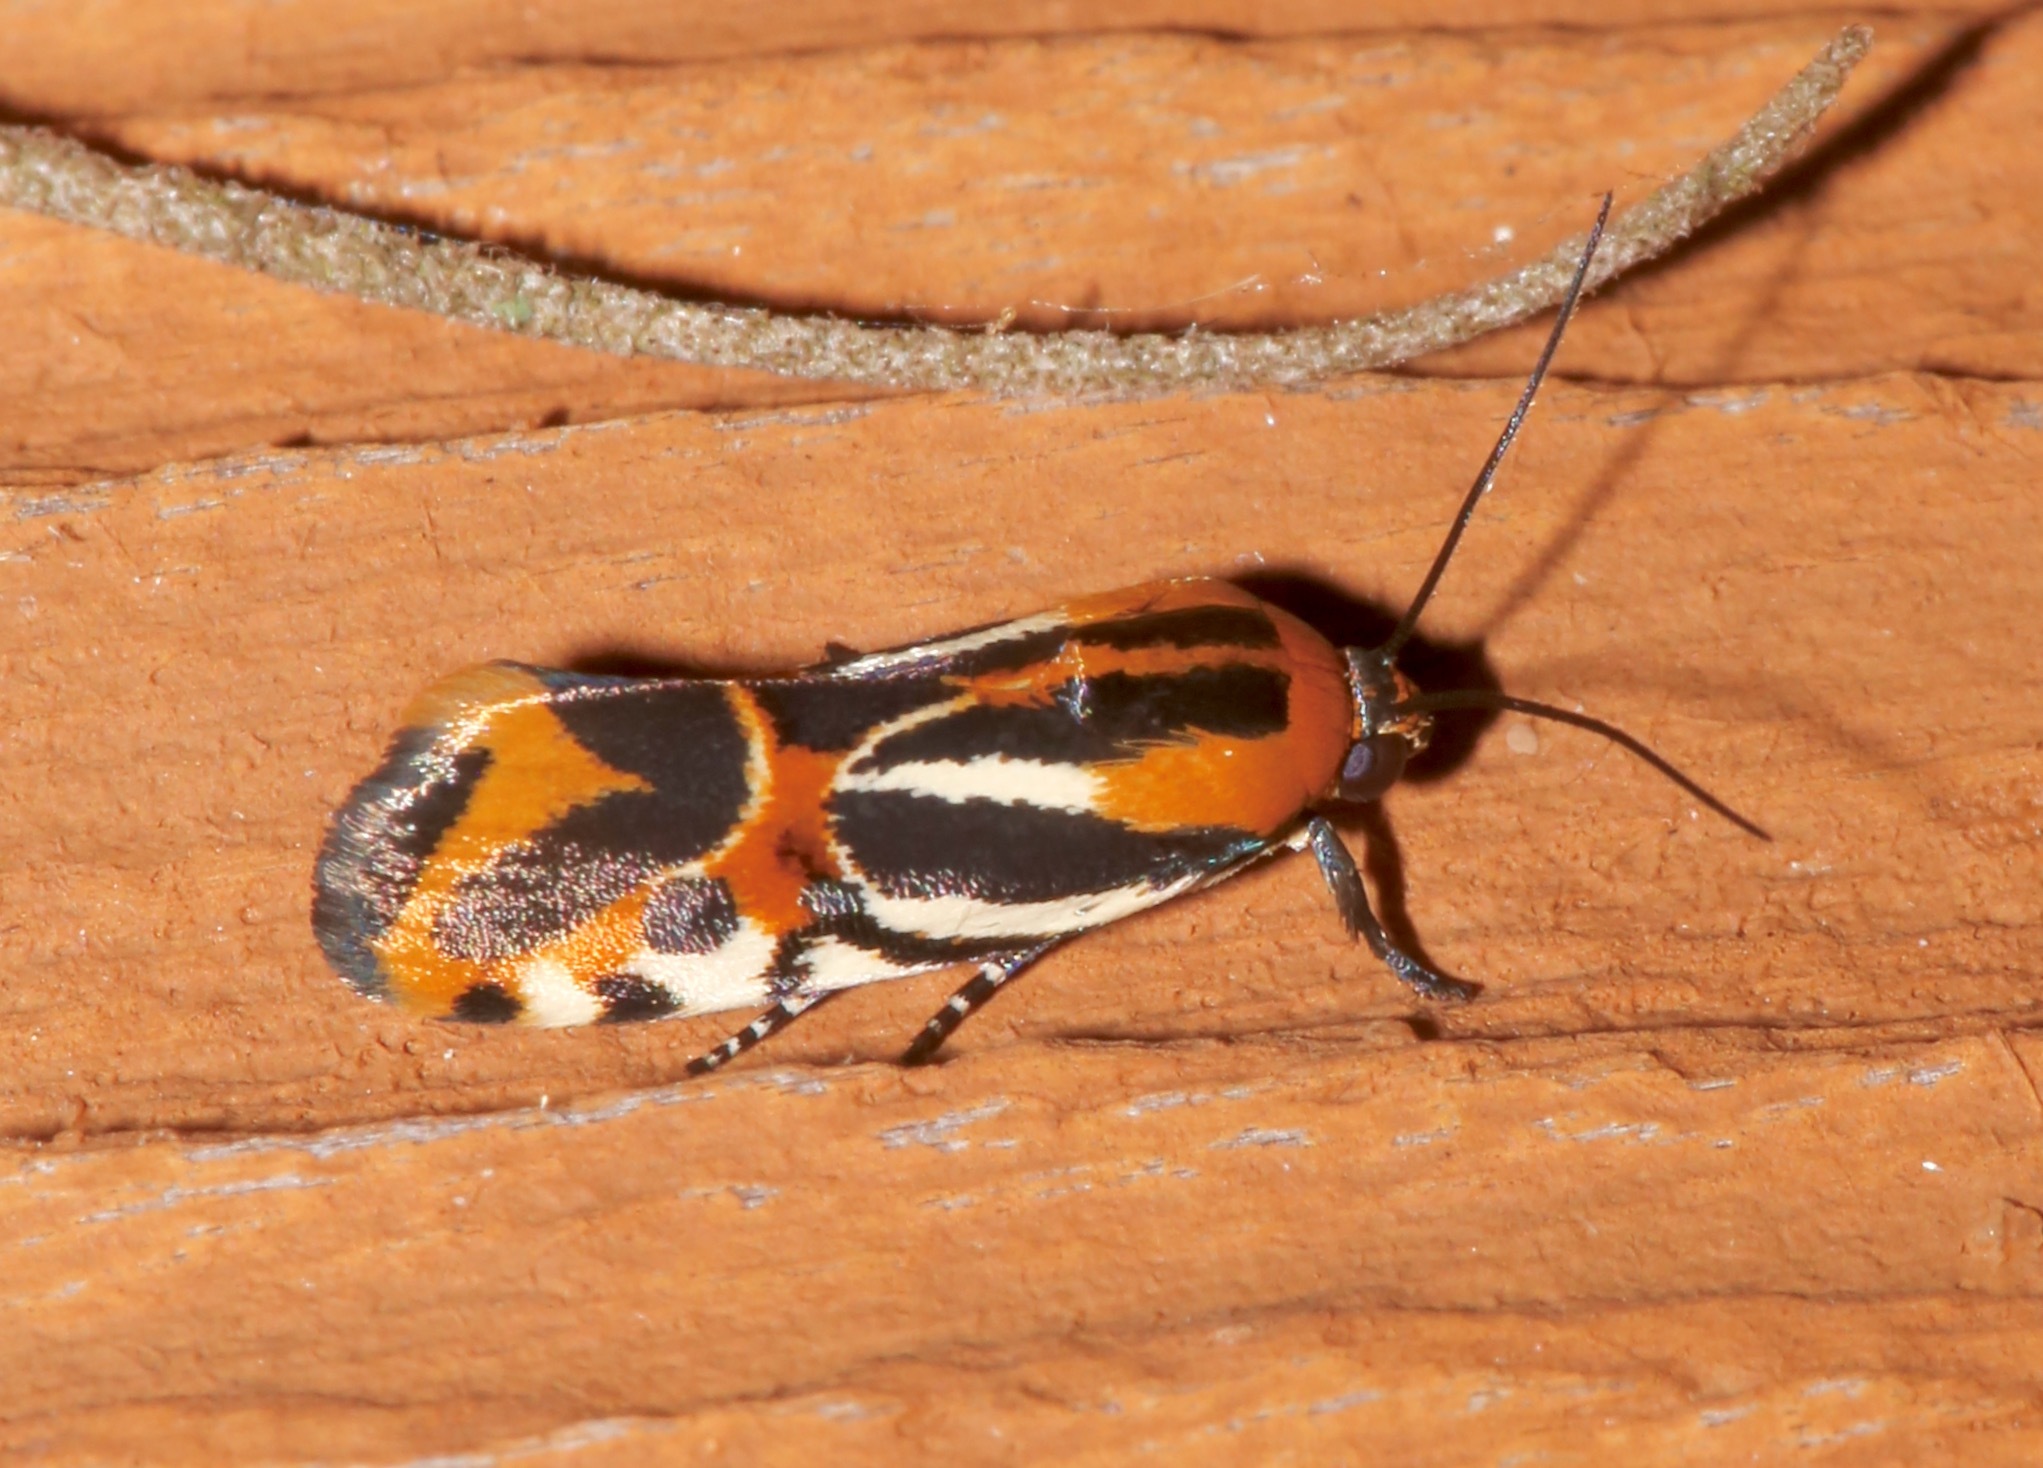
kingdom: Animalia
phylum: Arthropoda
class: Insecta
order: Lepidoptera
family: Noctuidae
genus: Acontia
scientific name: Acontia onagrus
